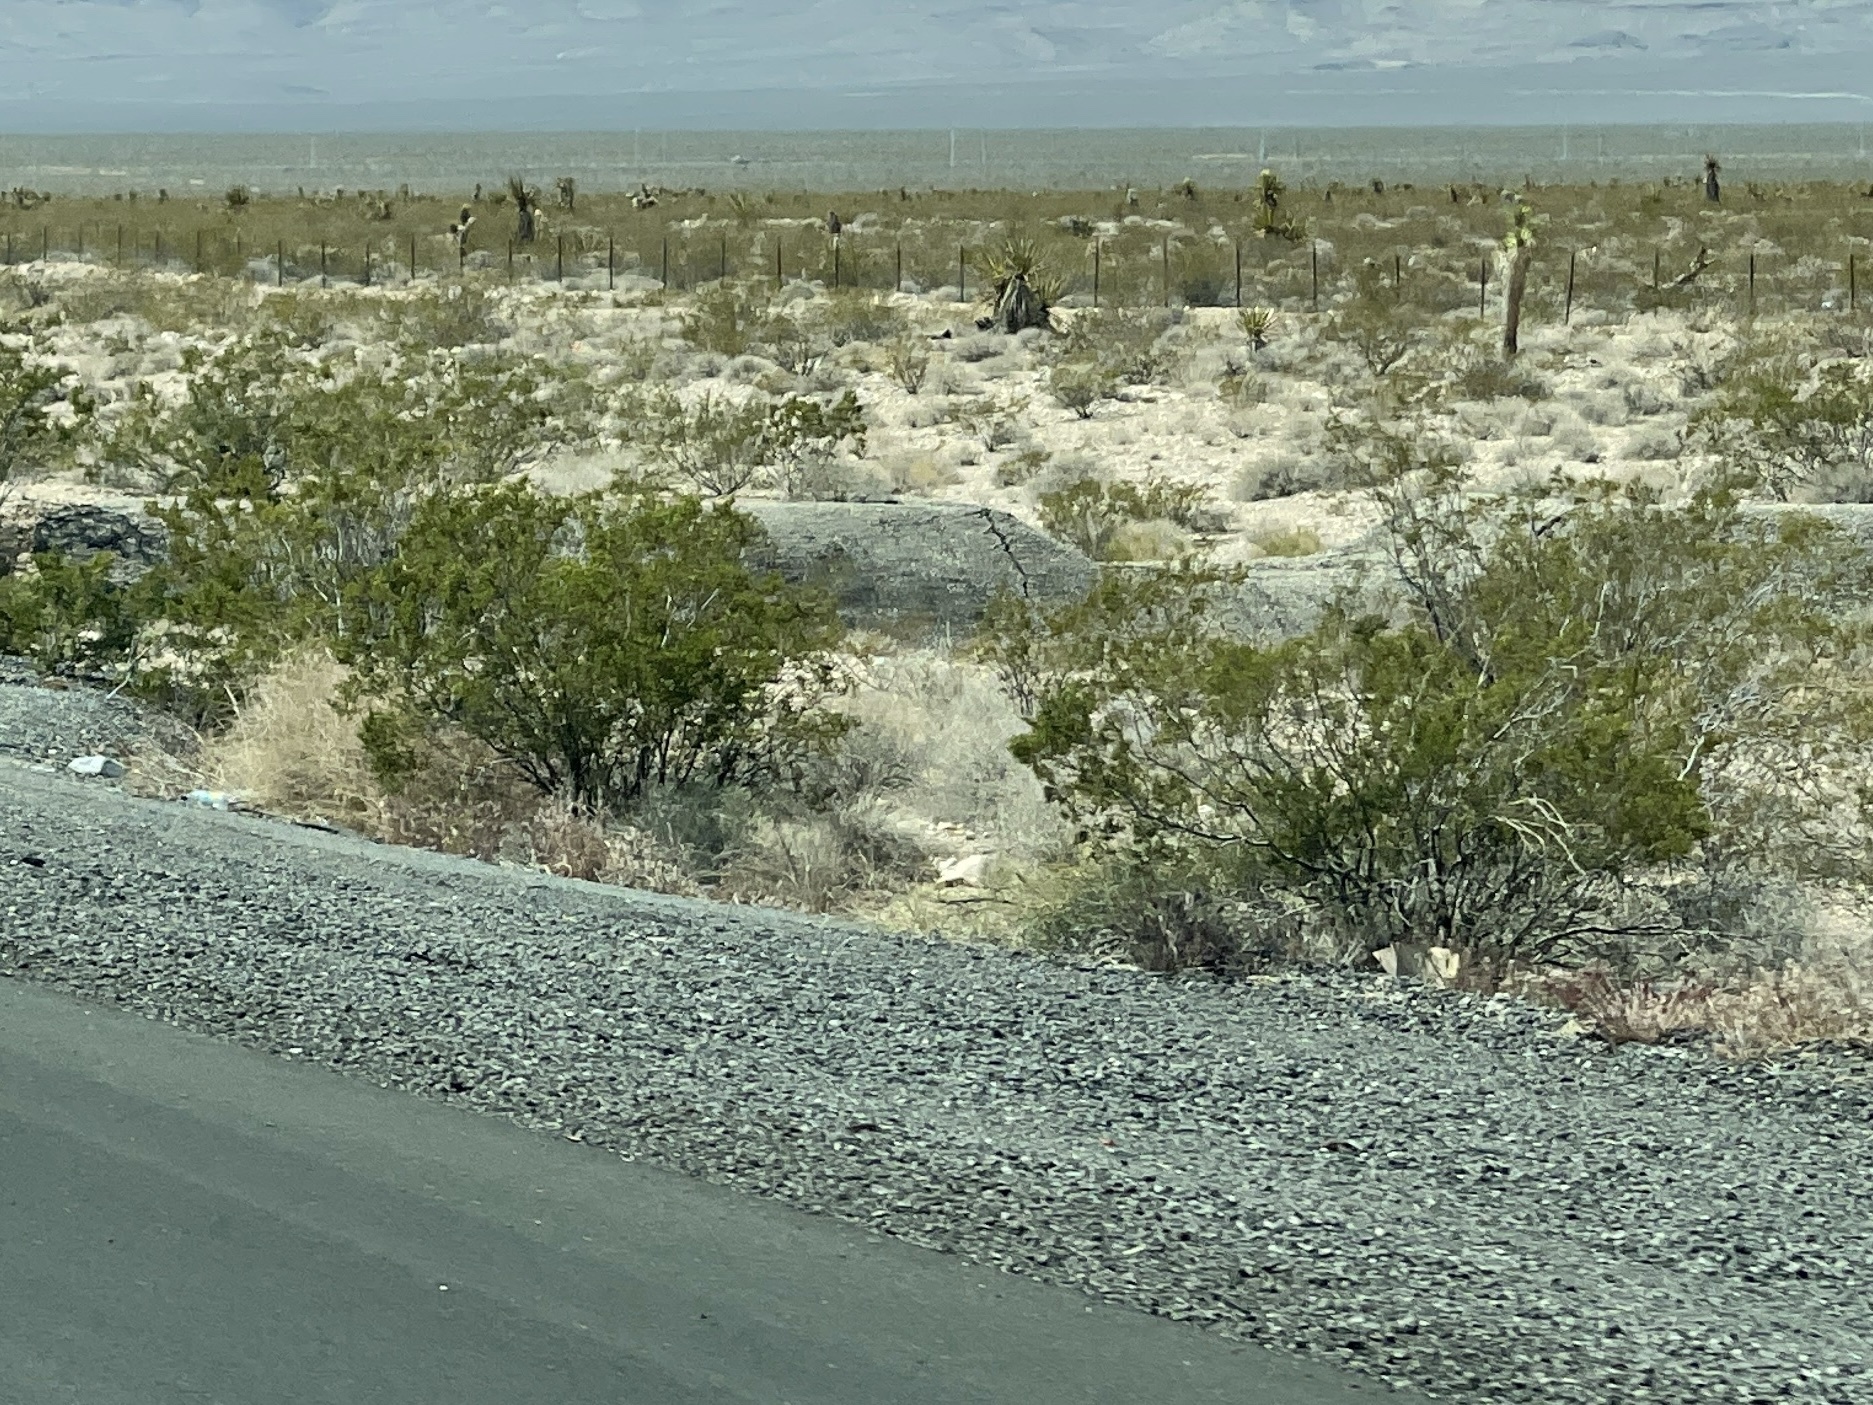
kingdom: Plantae
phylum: Tracheophyta
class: Magnoliopsida
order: Zygophyllales
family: Zygophyllaceae
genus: Larrea
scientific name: Larrea tridentata
